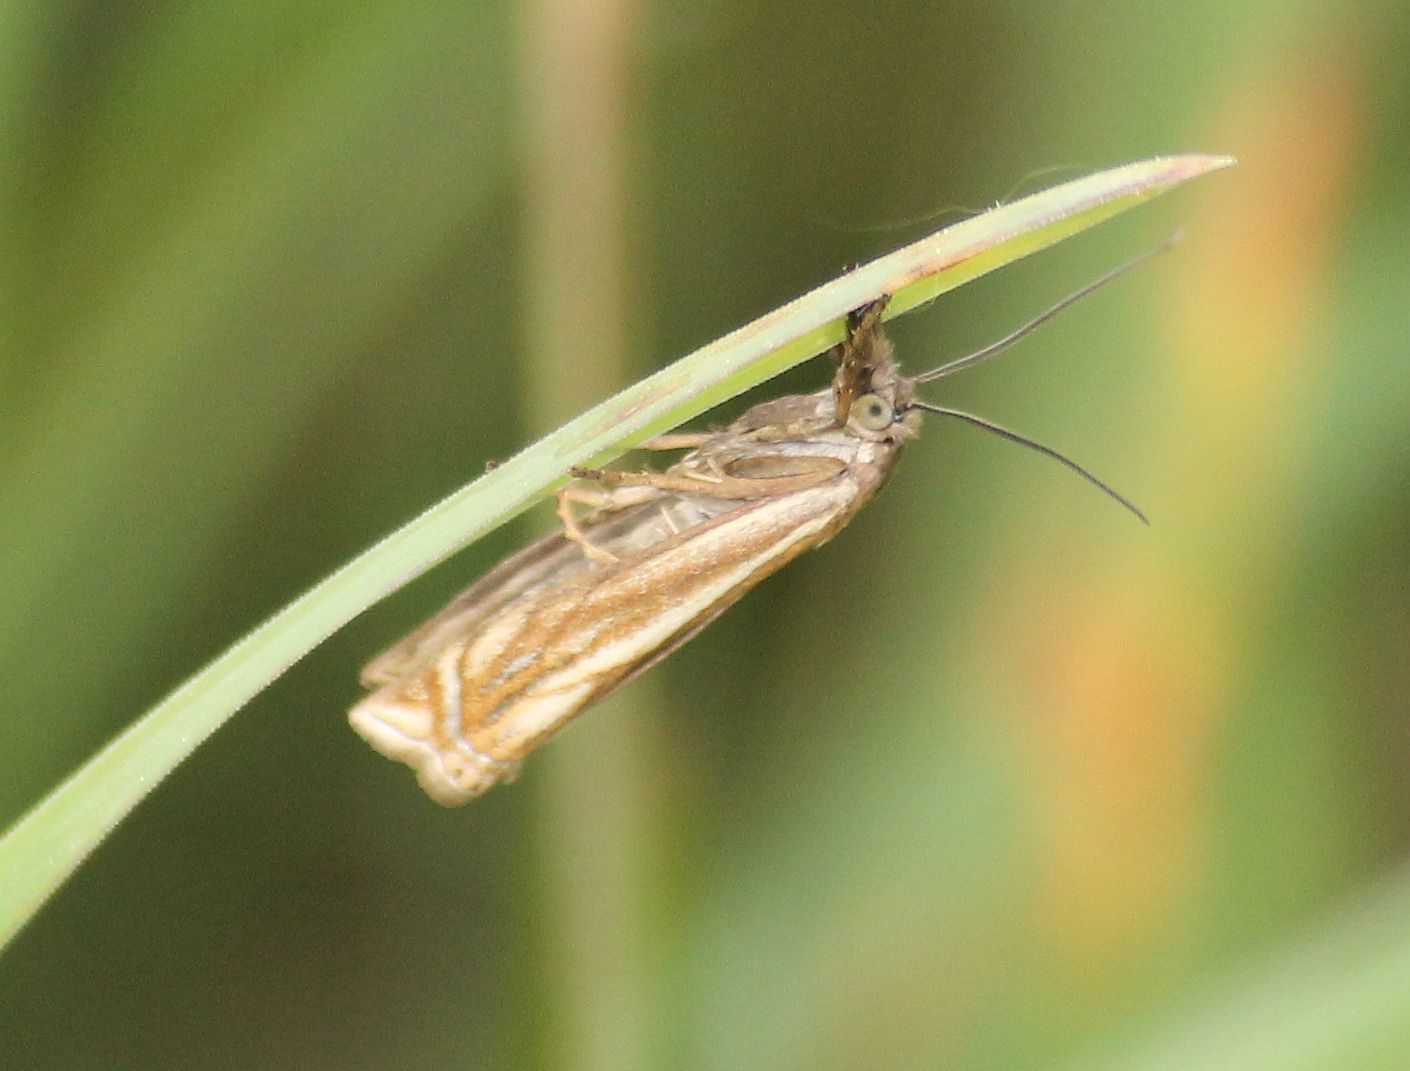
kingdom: Animalia
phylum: Arthropoda
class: Insecta
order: Lepidoptera
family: Crambidae
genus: Crambus
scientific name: Crambus nemorella
